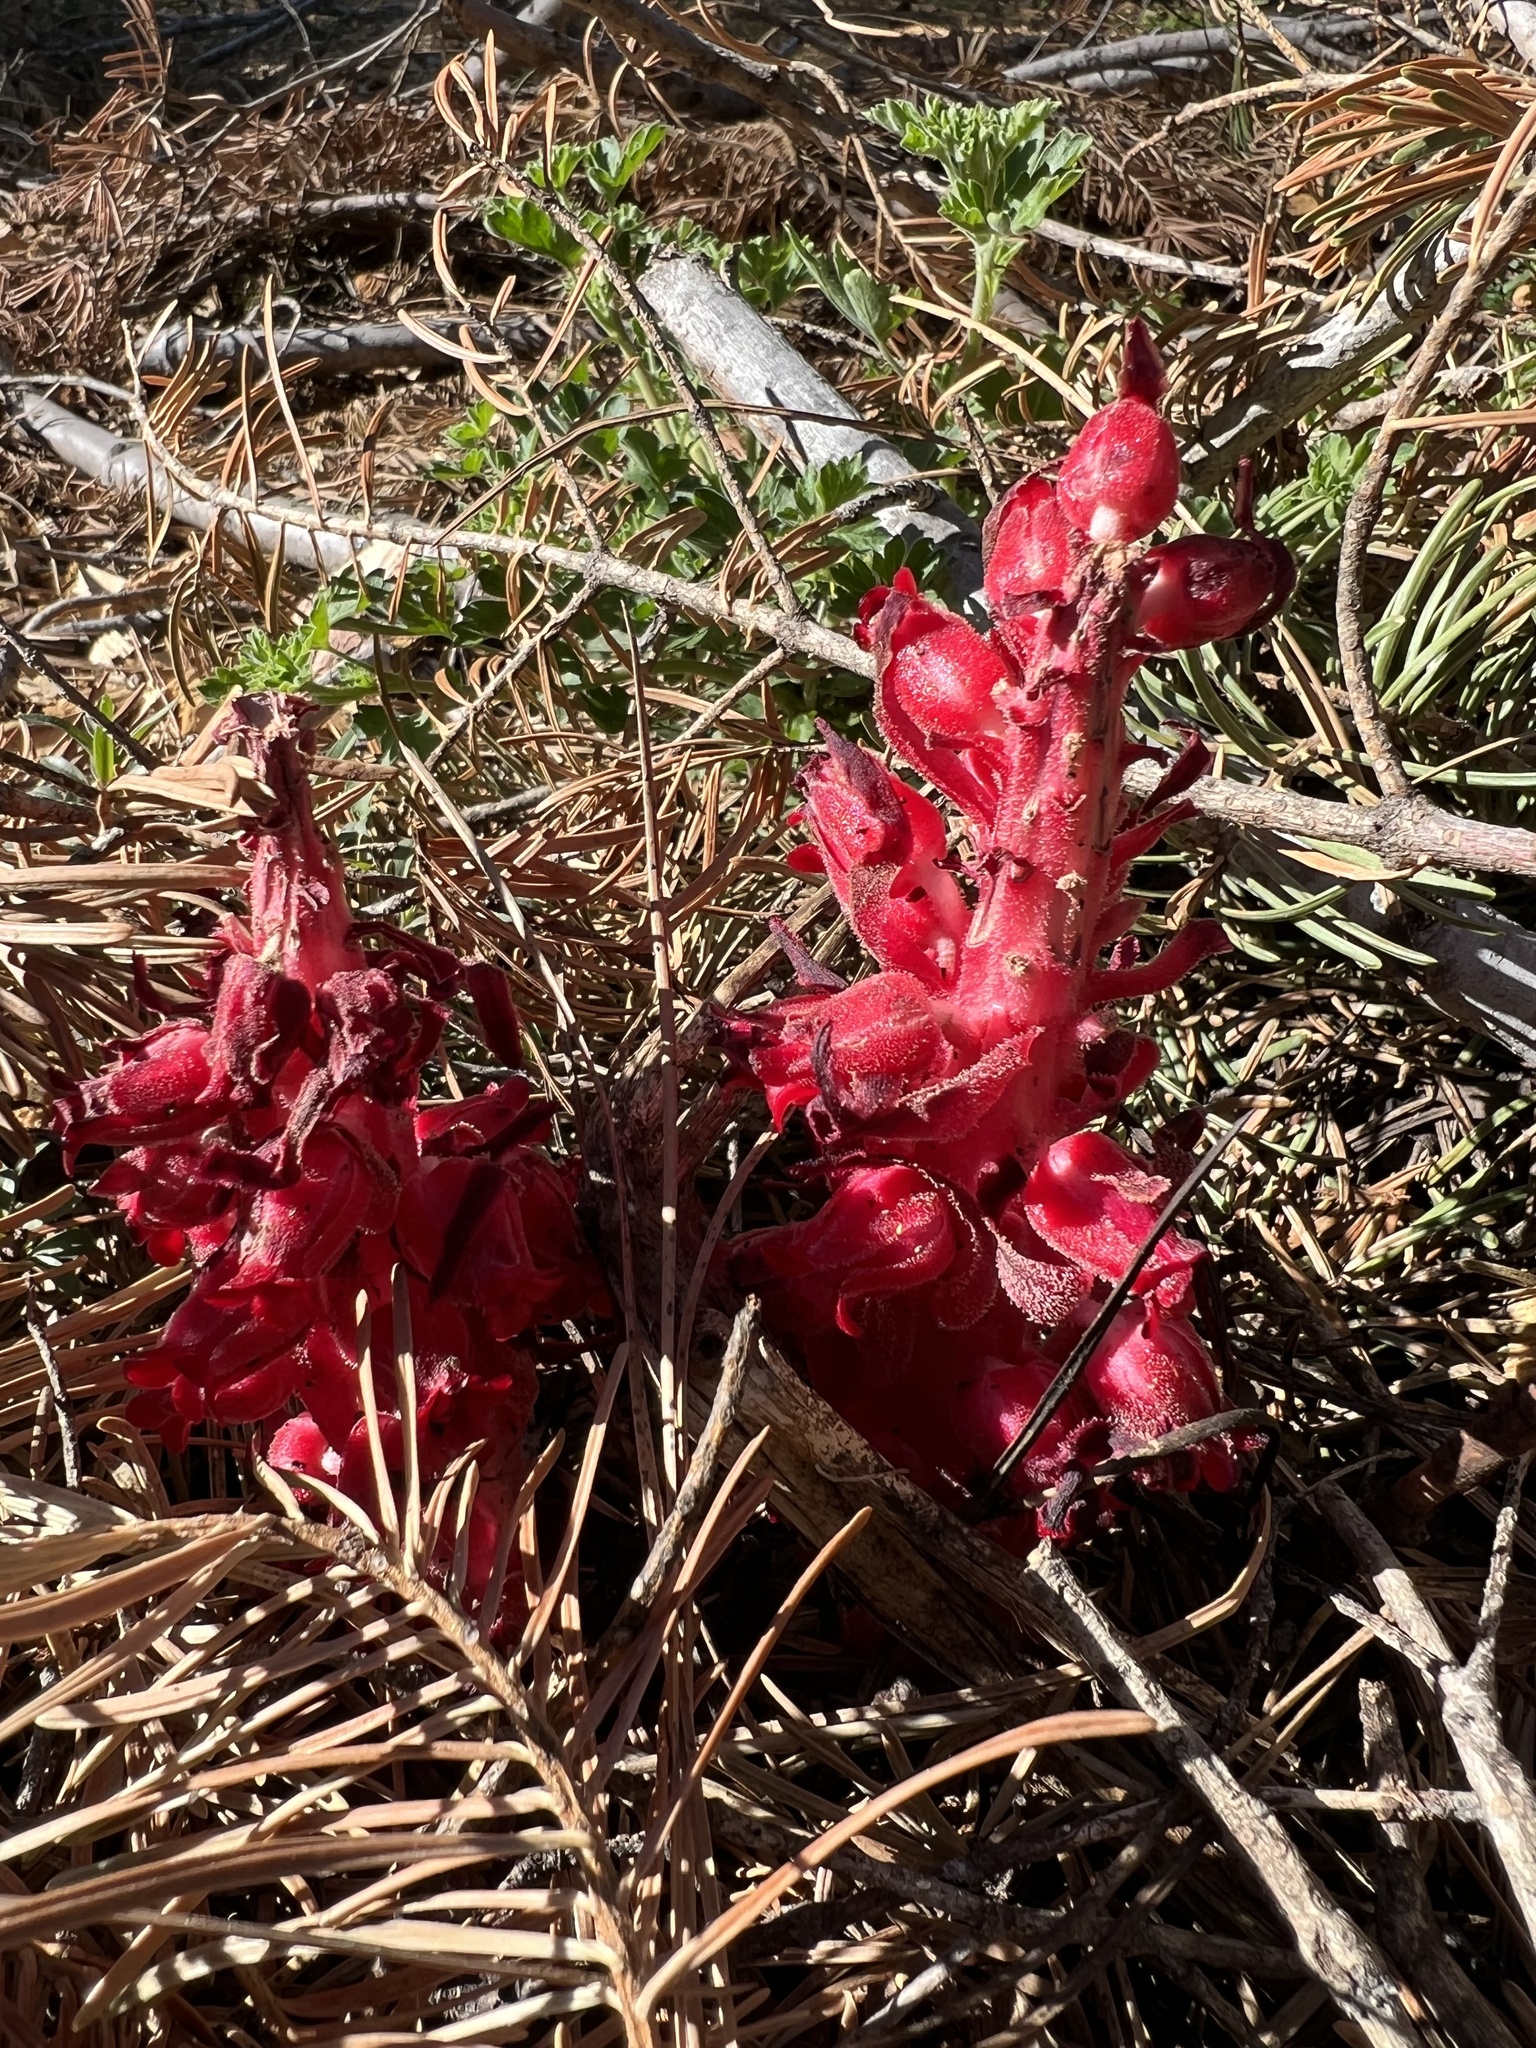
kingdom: Plantae
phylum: Tracheophyta
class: Magnoliopsida
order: Ericales
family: Ericaceae
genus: Sarcodes
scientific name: Sarcodes sanguinea
